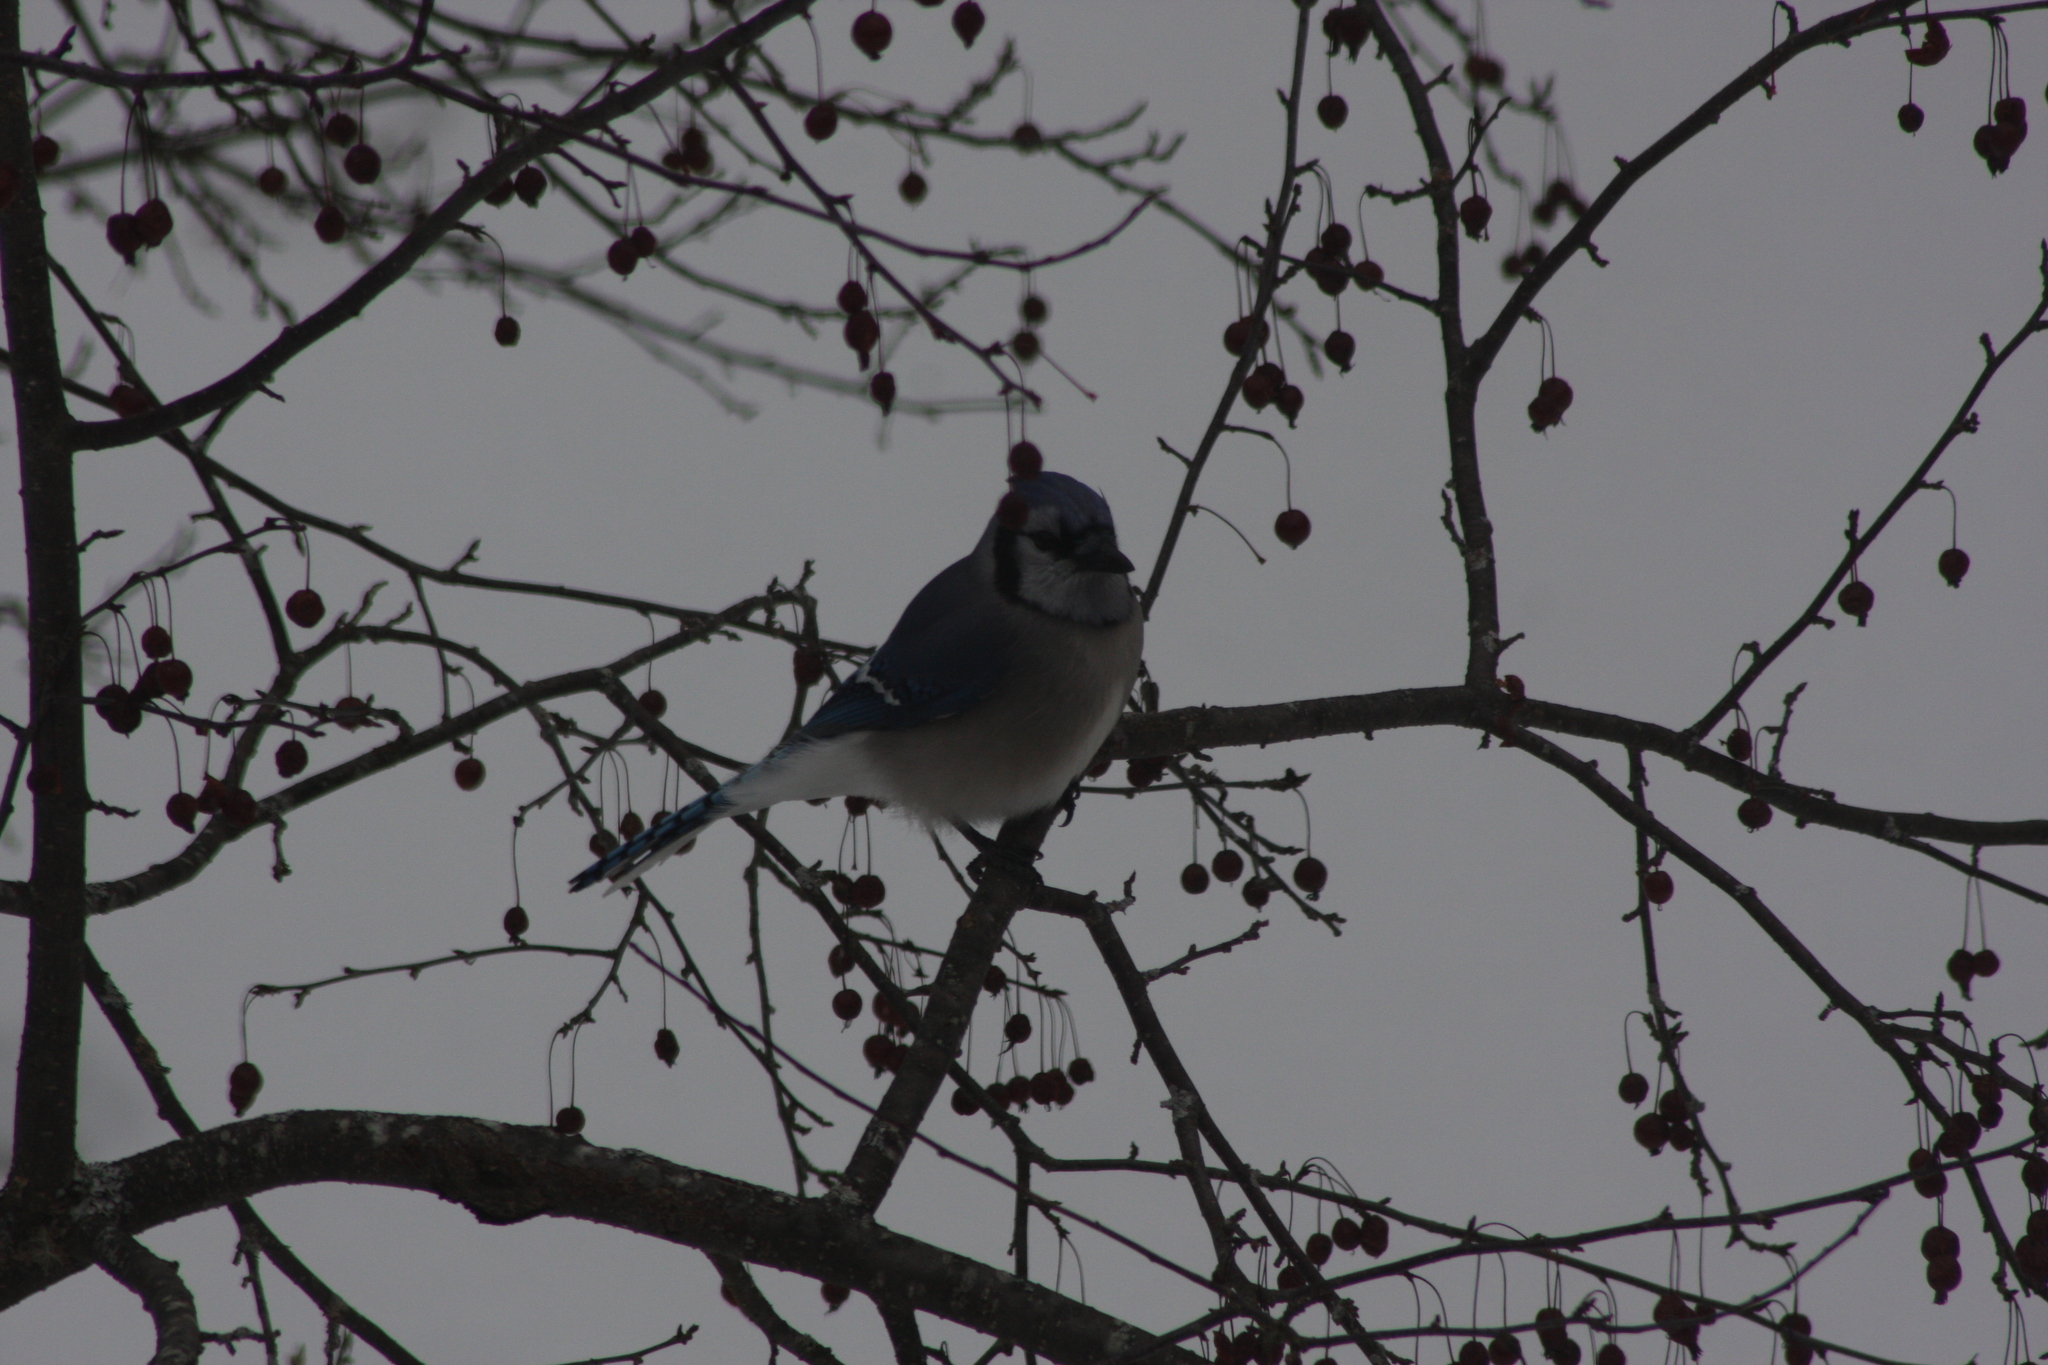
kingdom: Animalia
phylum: Chordata
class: Aves
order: Passeriformes
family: Corvidae
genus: Cyanocitta
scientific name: Cyanocitta cristata
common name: Blue jay
